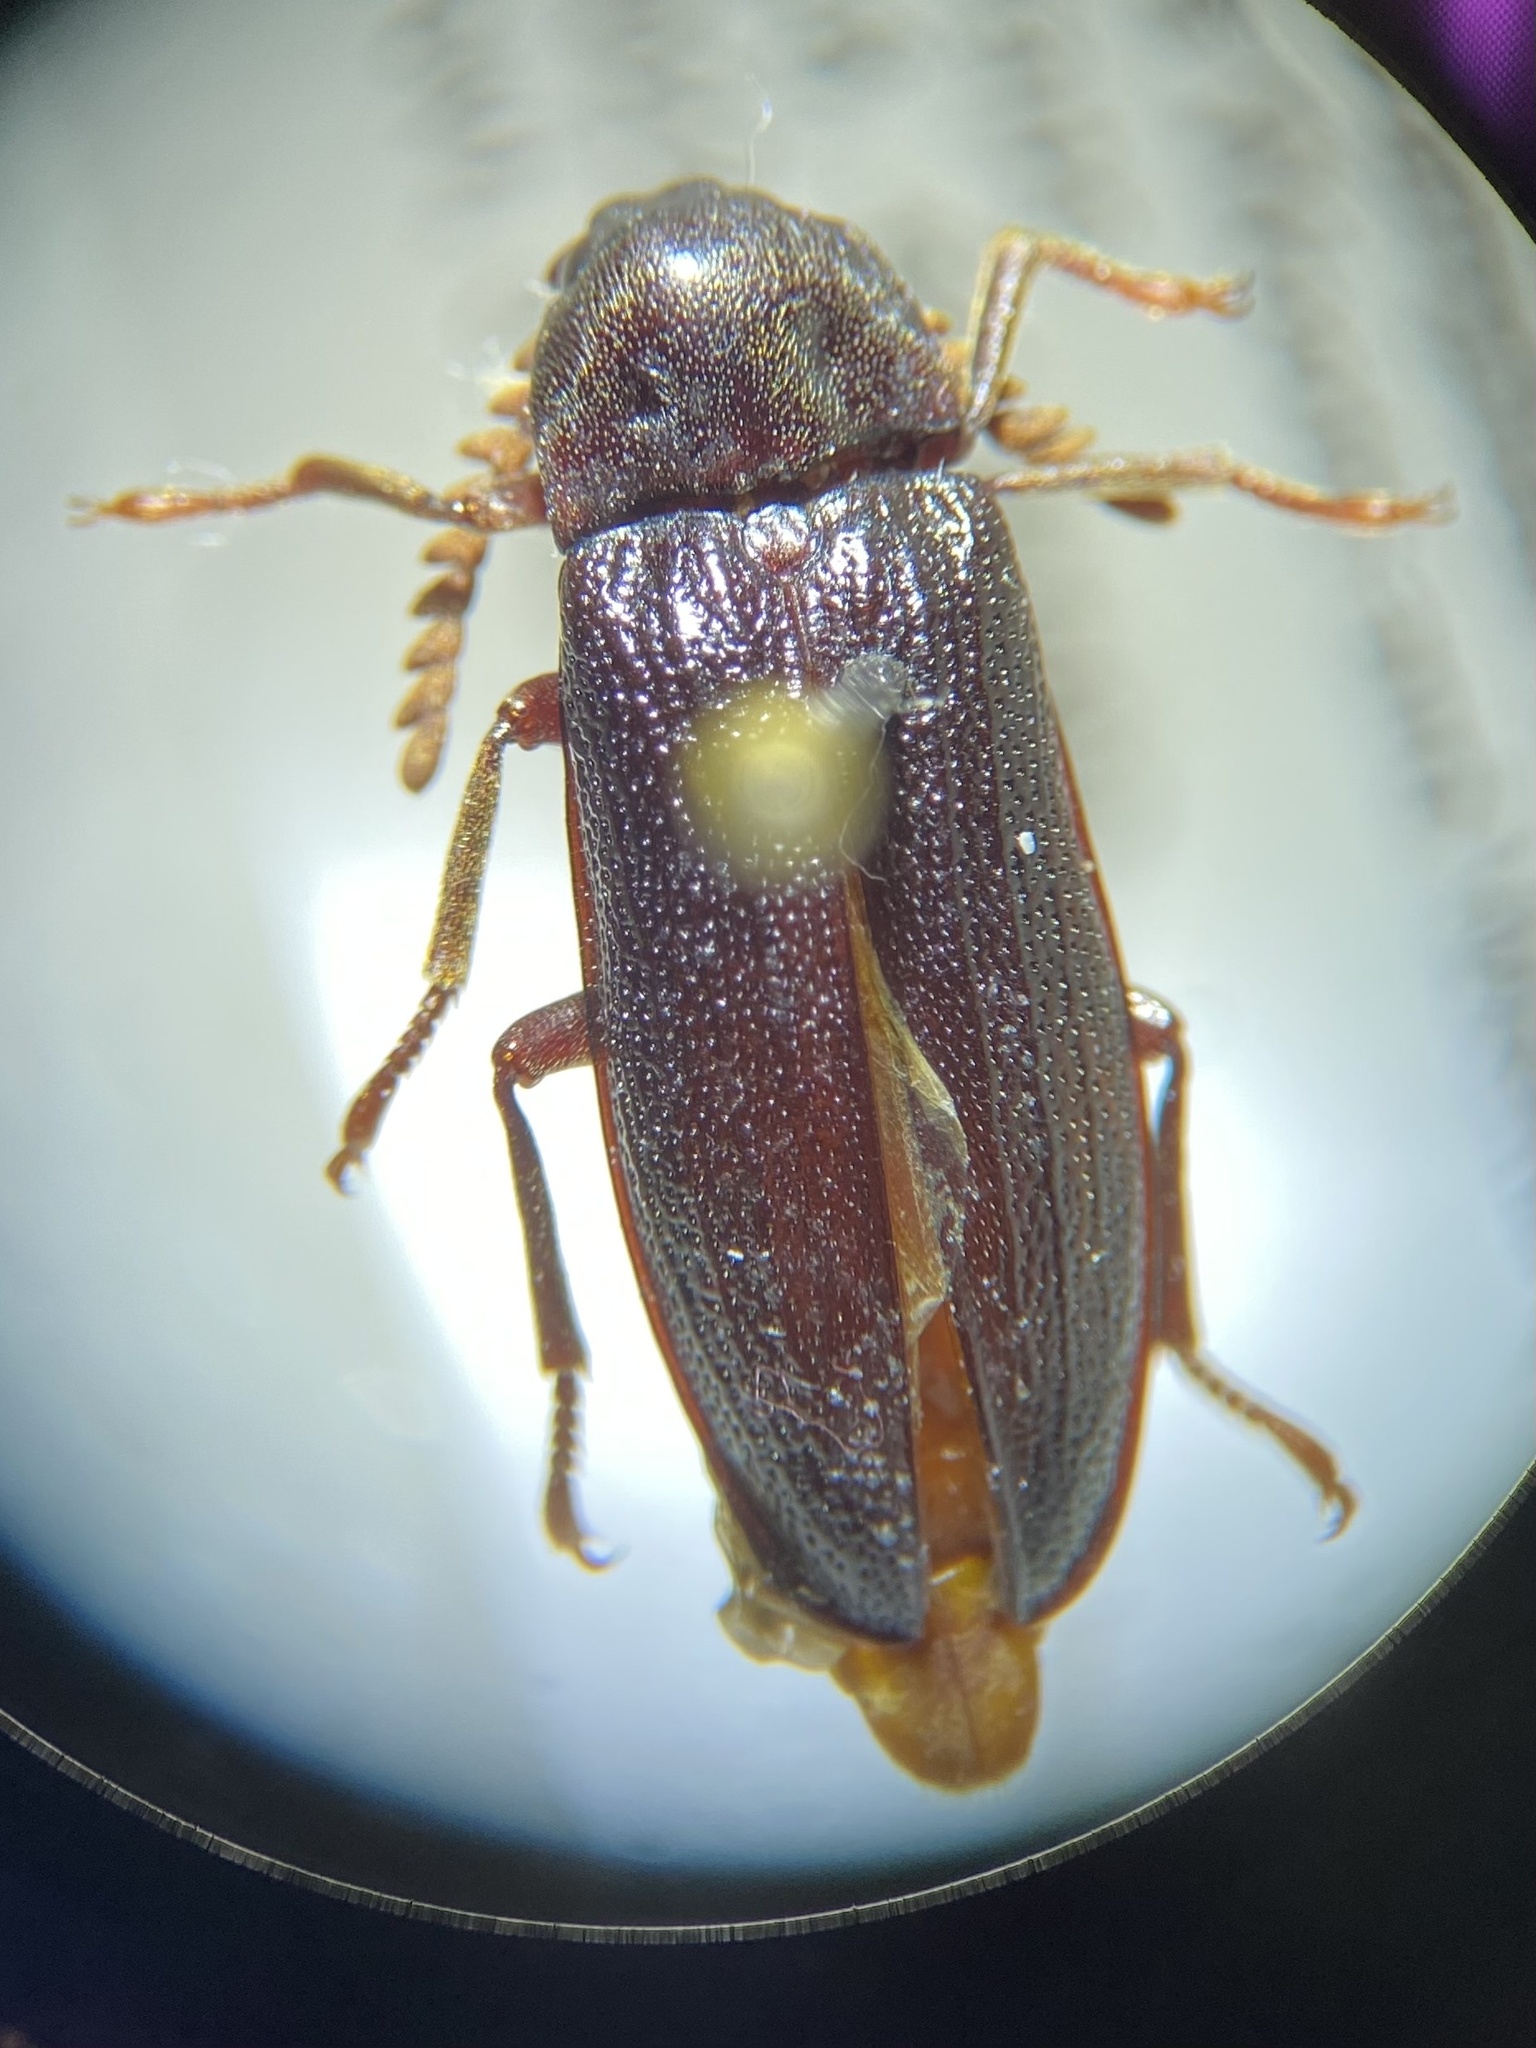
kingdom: Animalia
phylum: Arthropoda
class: Insecta
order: Coleoptera
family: Callirhipidae
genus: Zenoa
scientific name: Zenoa picea
